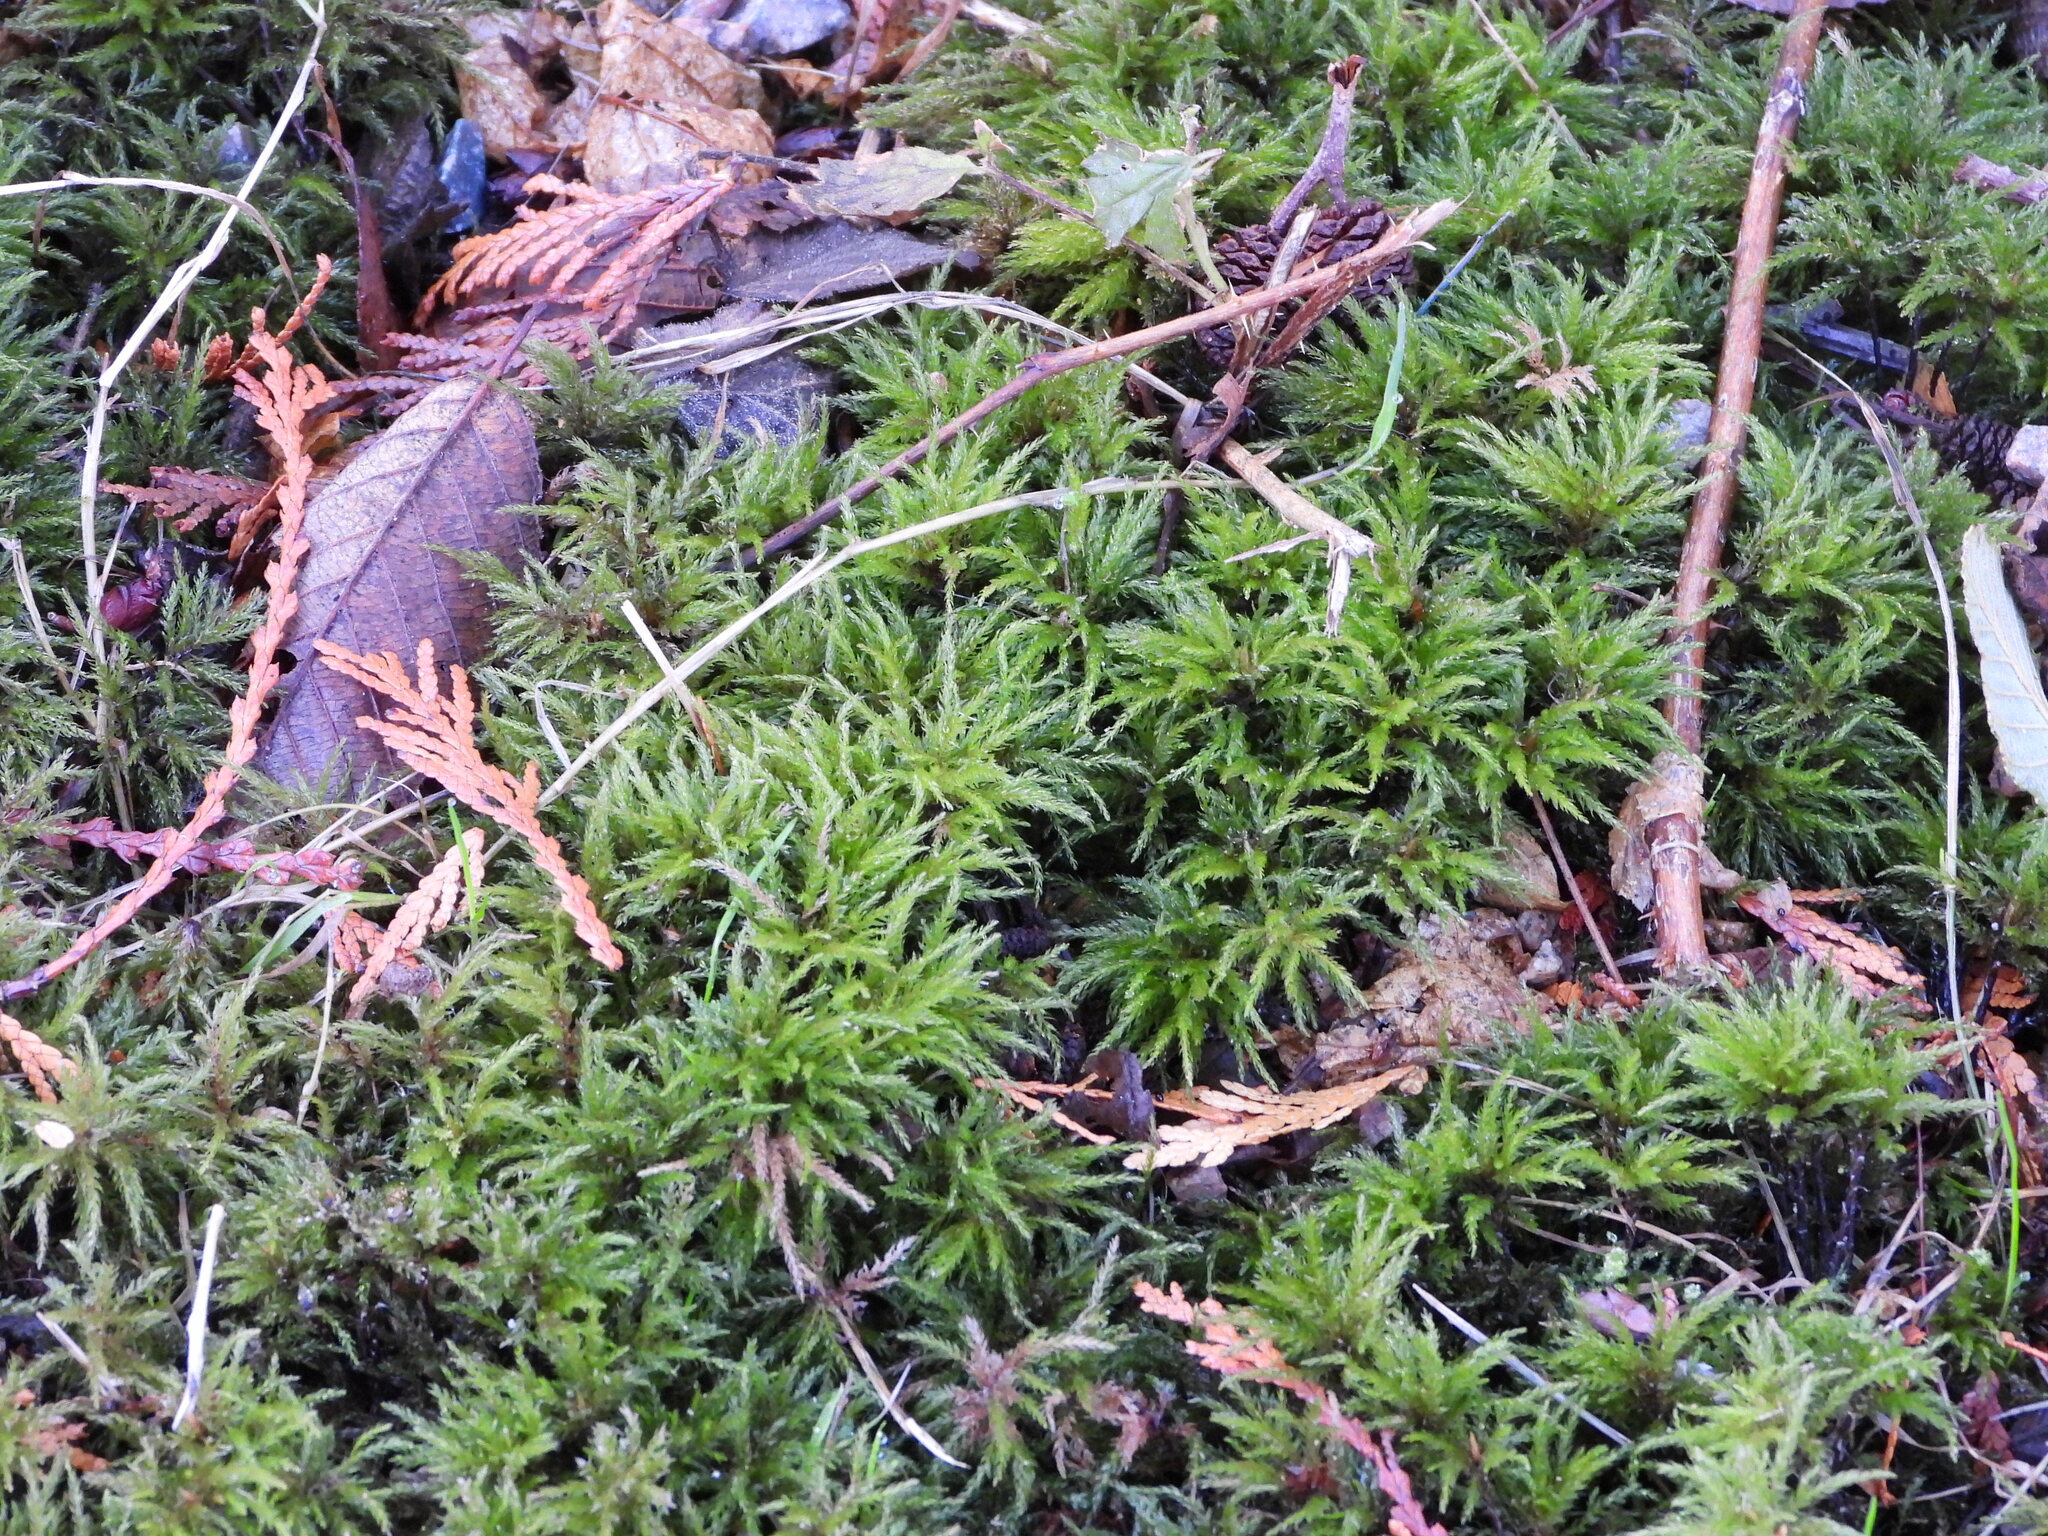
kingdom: Plantae
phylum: Bryophyta
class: Bryopsida
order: Bryales
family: Mniaceae
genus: Leucolepis
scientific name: Leucolepis acanthoneura
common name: Leucolepis umbrella moss
